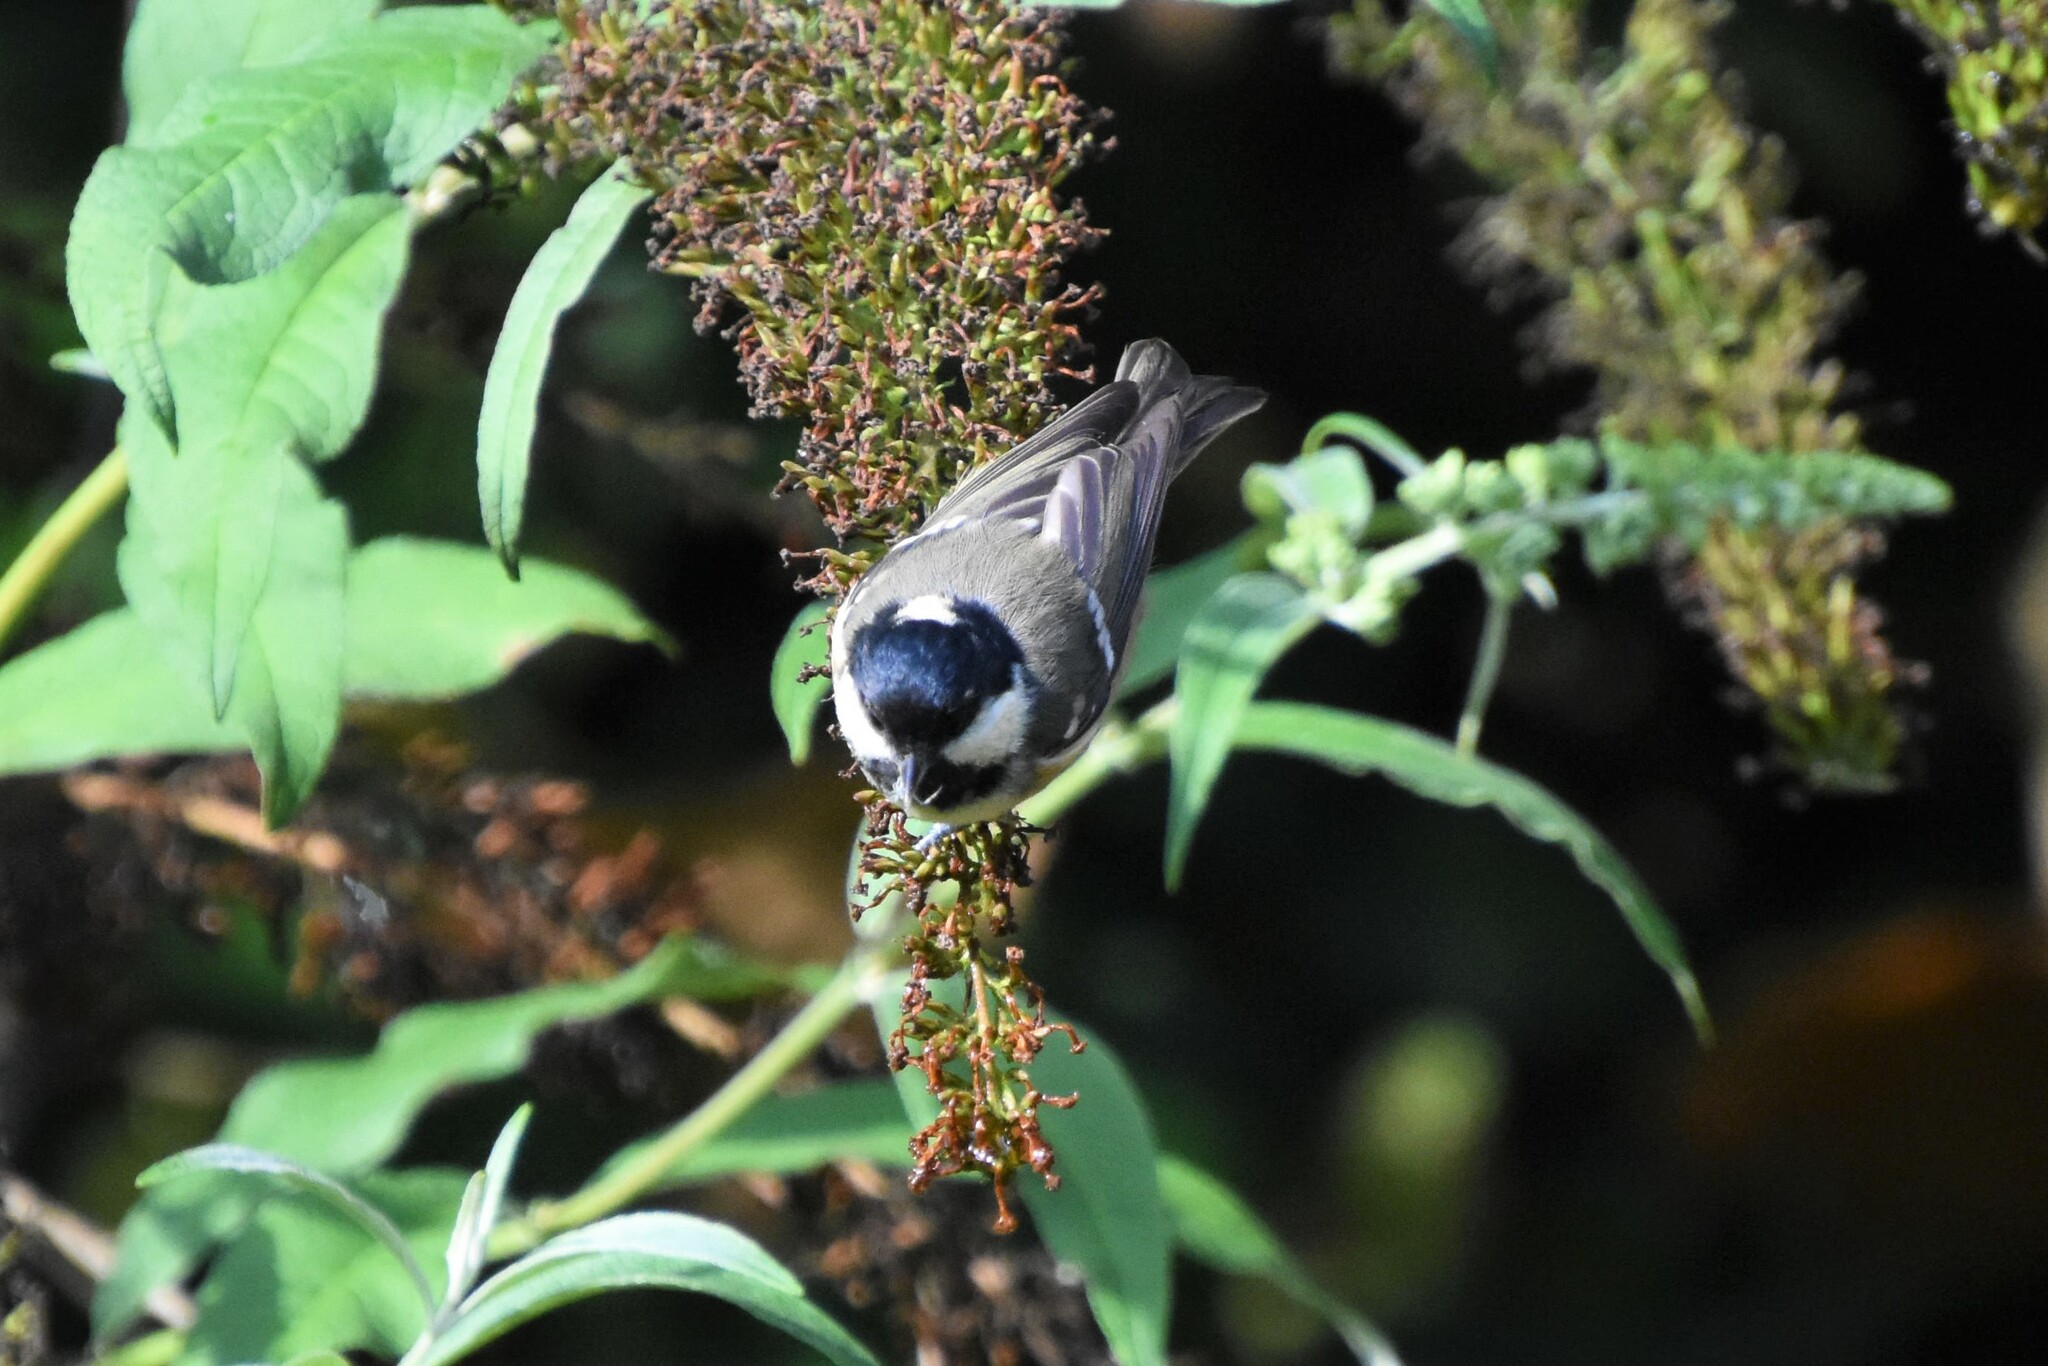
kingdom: Animalia
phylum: Chordata
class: Aves
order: Passeriformes
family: Paridae
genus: Periparus
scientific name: Periparus ater
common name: Coal tit
